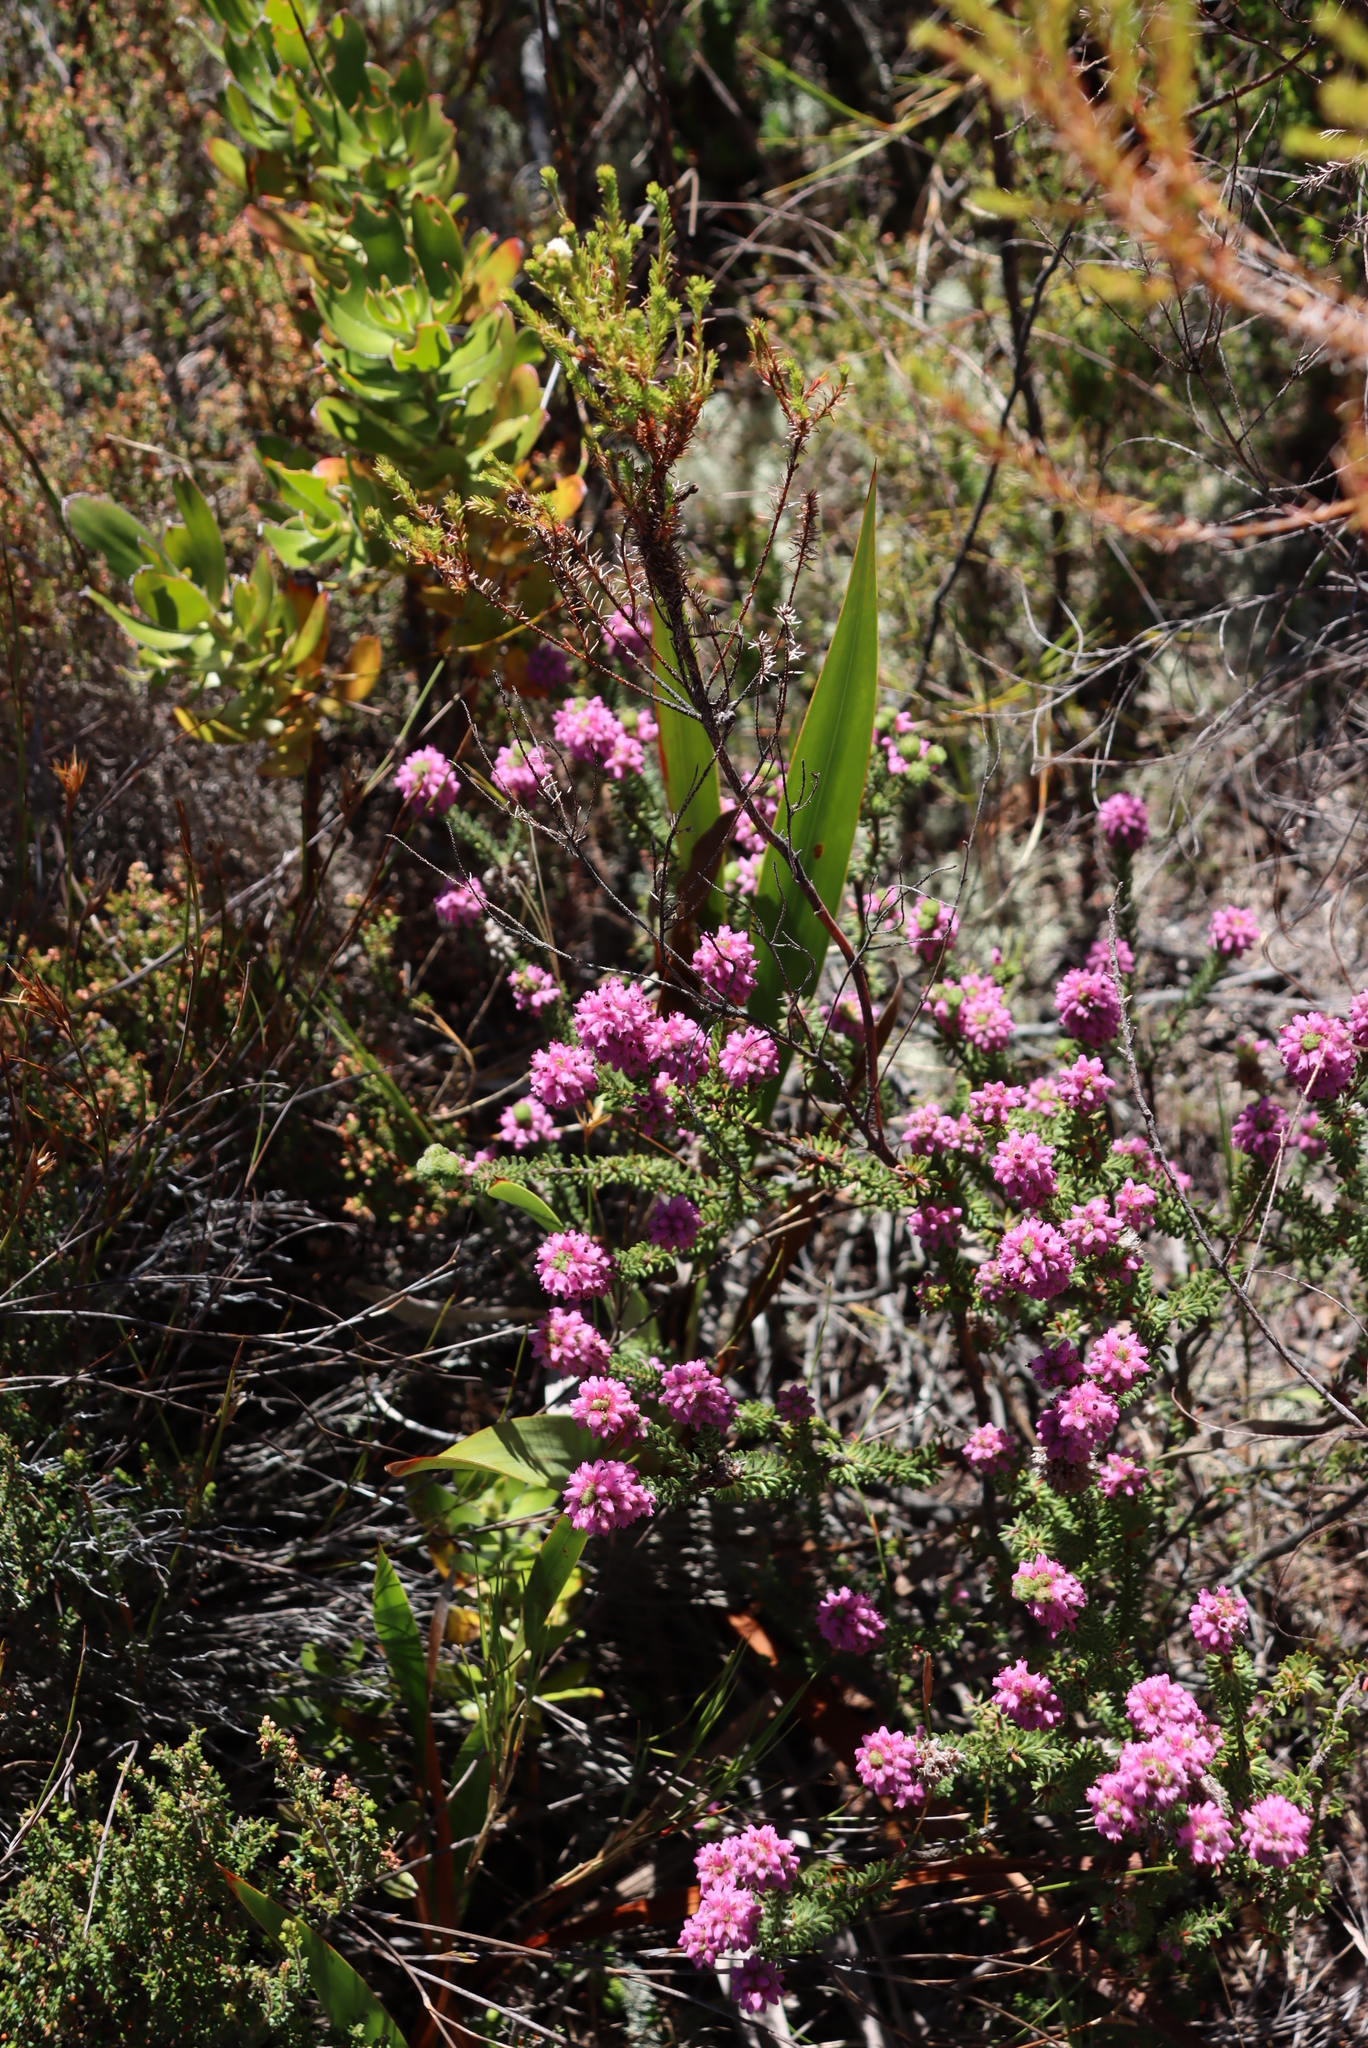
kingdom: Plantae
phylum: Tracheophyta
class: Magnoliopsida
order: Ericales
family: Ericaceae
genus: Erica
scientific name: Erica empetrina
